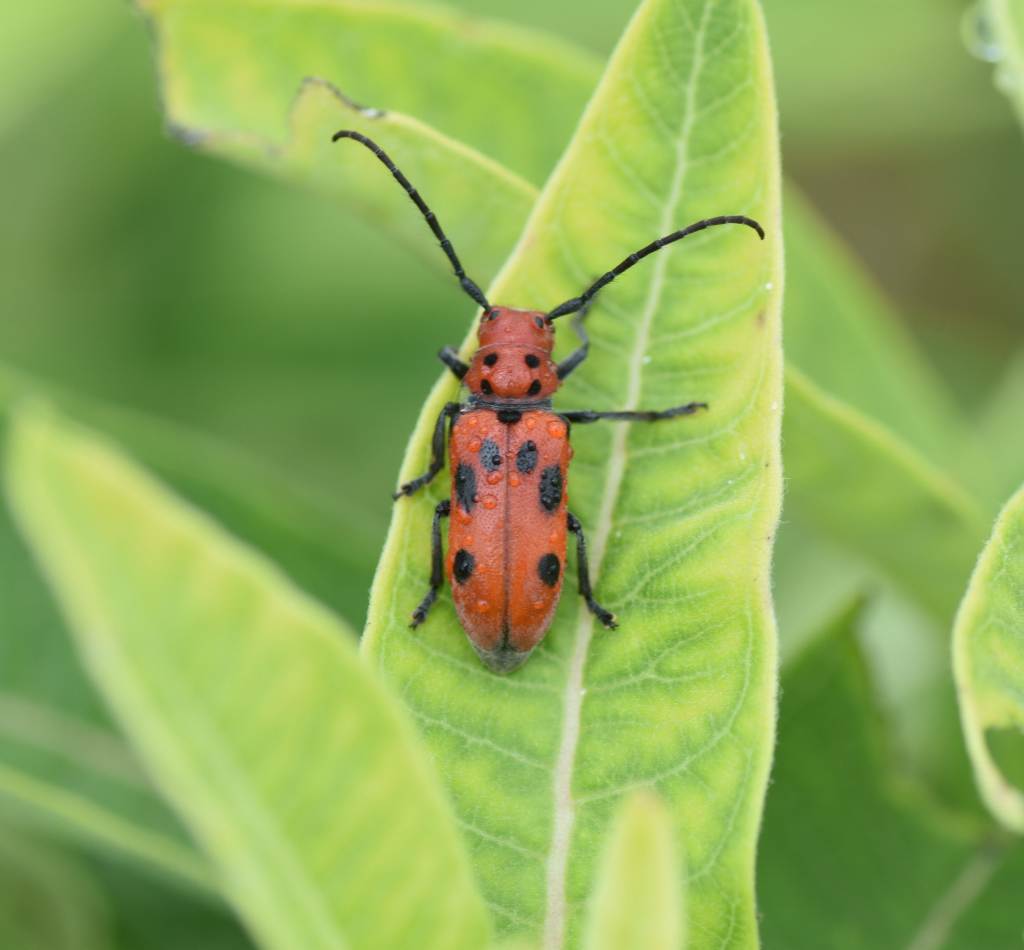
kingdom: Animalia
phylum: Arthropoda
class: Insecta
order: Coleoptera
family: Cerambycidae
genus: Tetraopes
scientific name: Tetraopes tetrophthalmus
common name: Red milkweed beetle
